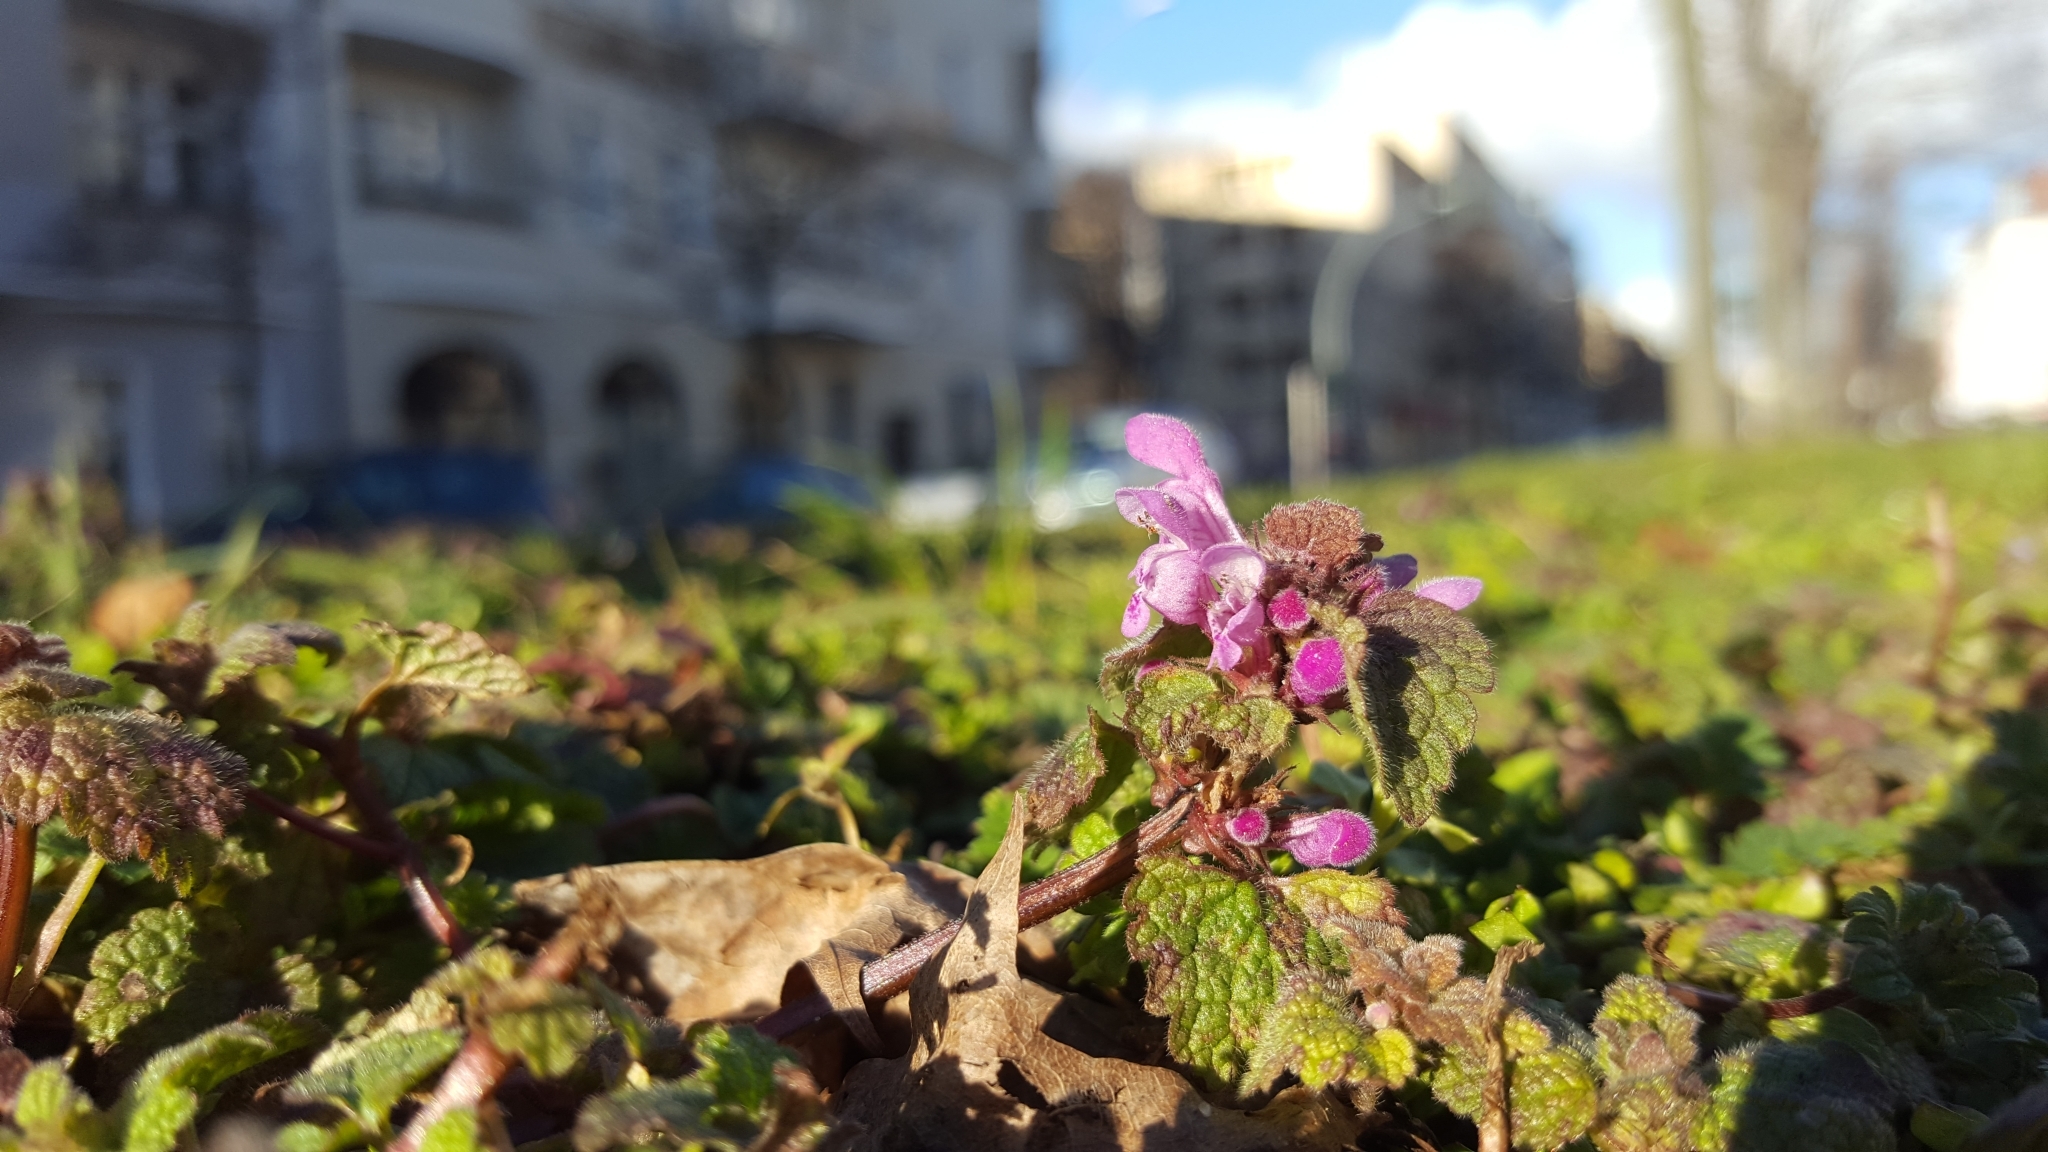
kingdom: Plantae
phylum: Tracheophyta
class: Magnoliopsida
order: Lamiales
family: Lamiaceae
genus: Lamium
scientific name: Lamium purpureum
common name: Red dead-nettle
